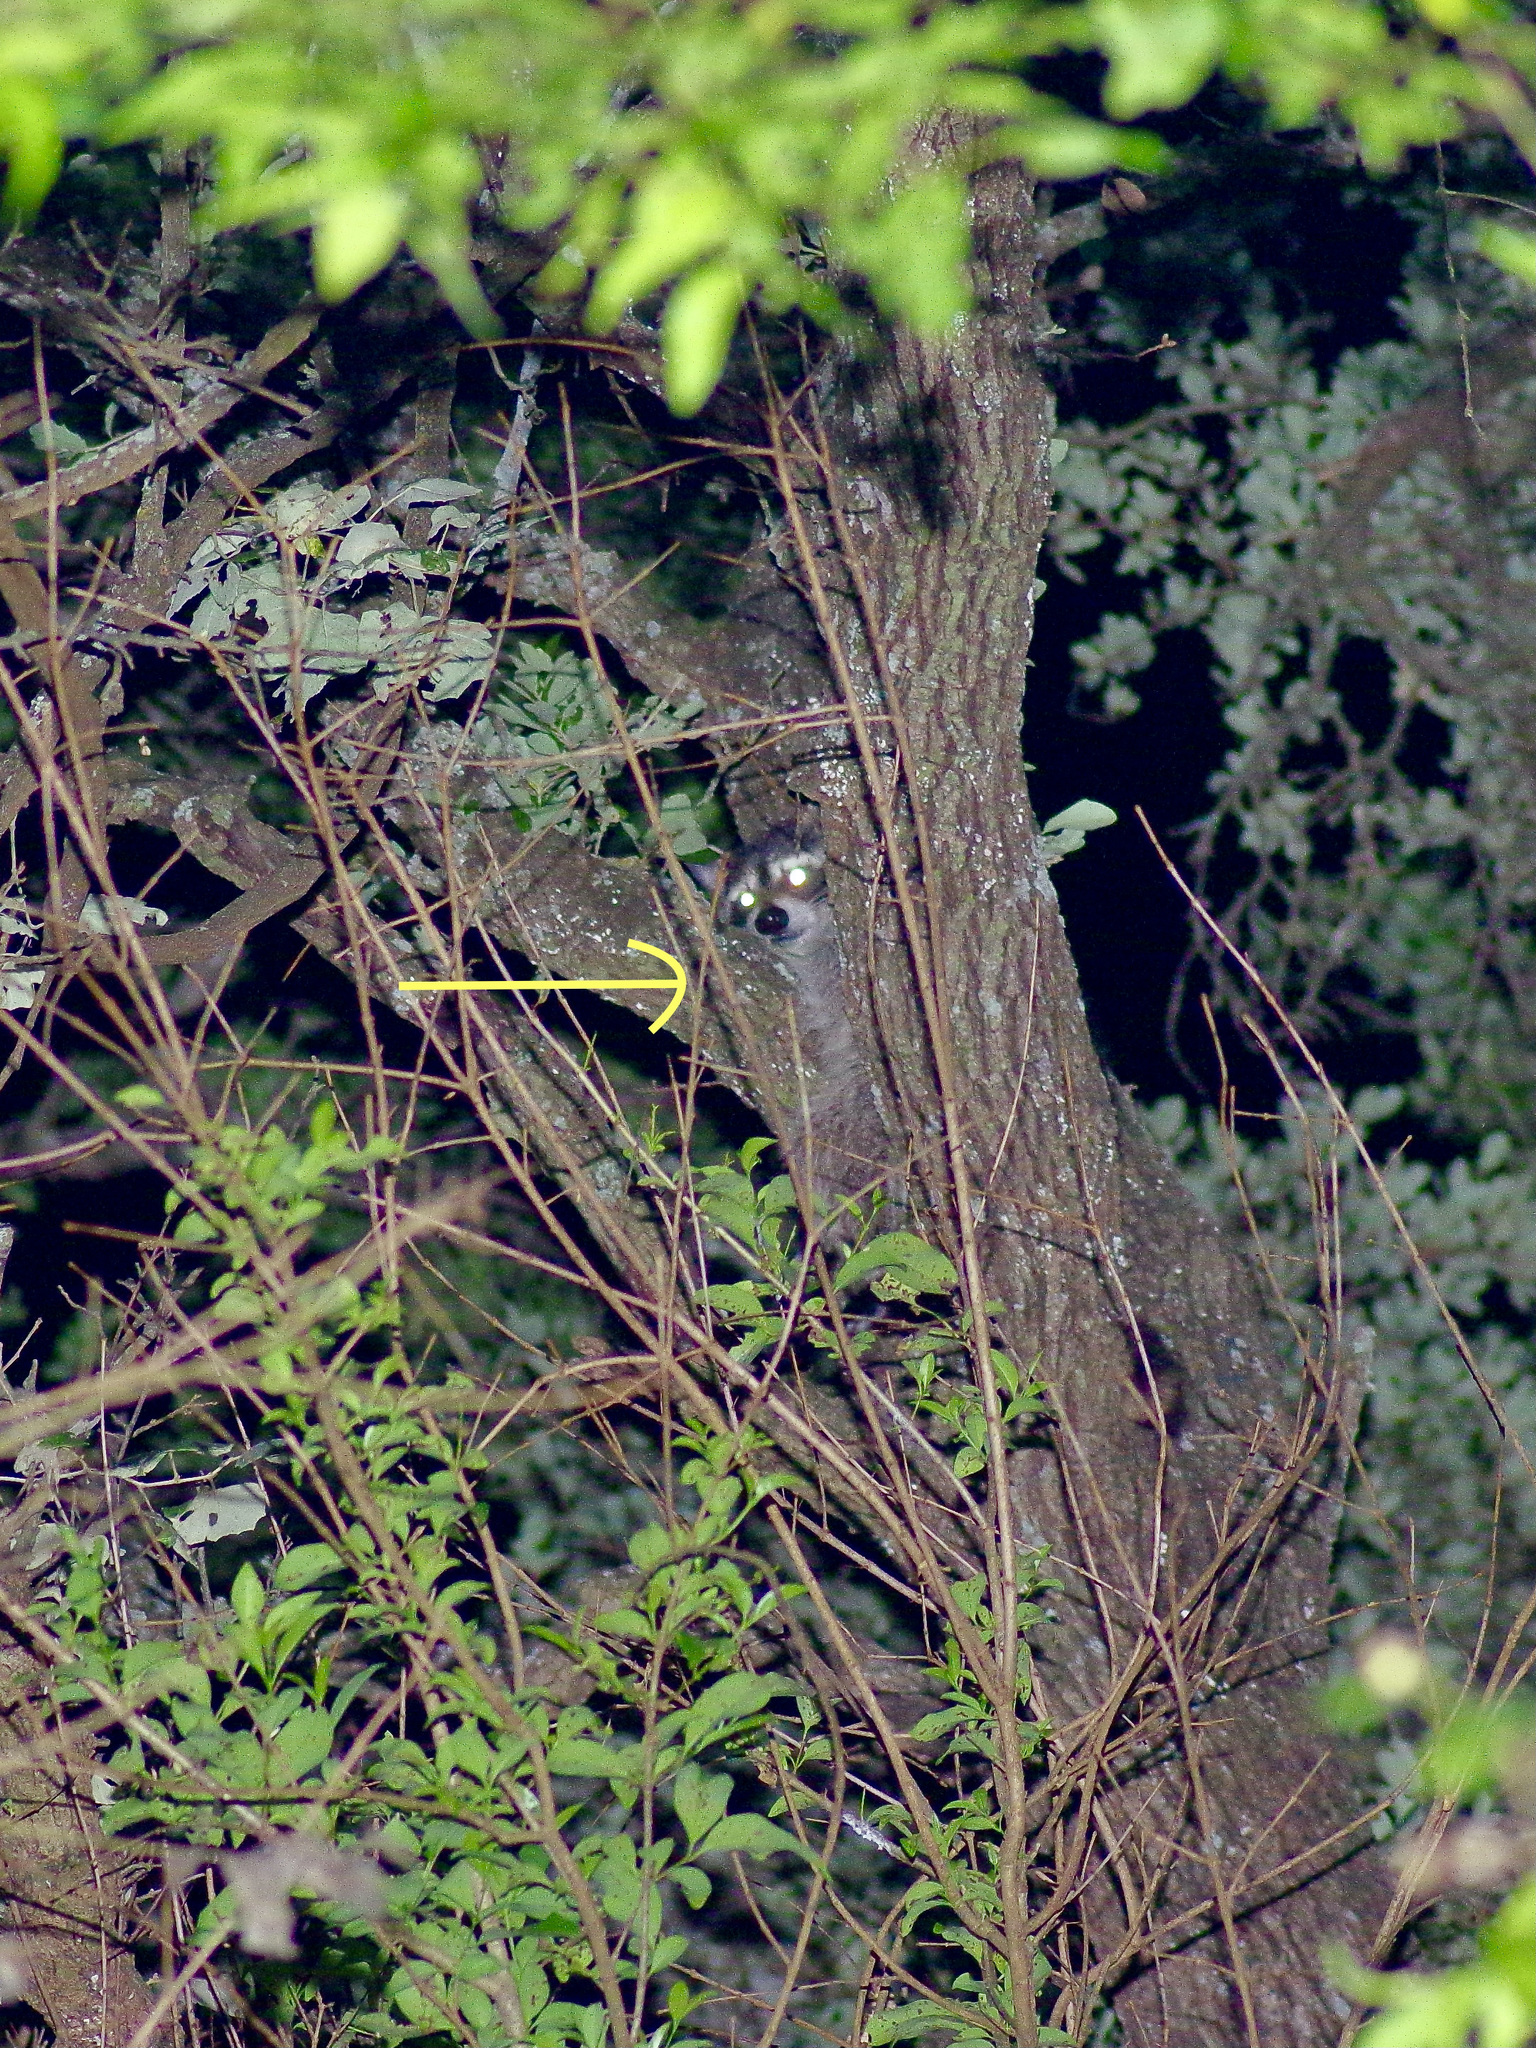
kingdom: Animalia
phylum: Chordata
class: Mammalia
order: Carnivora
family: Procyonidae
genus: Procyon
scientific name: Procyon lotor
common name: Raccoon
